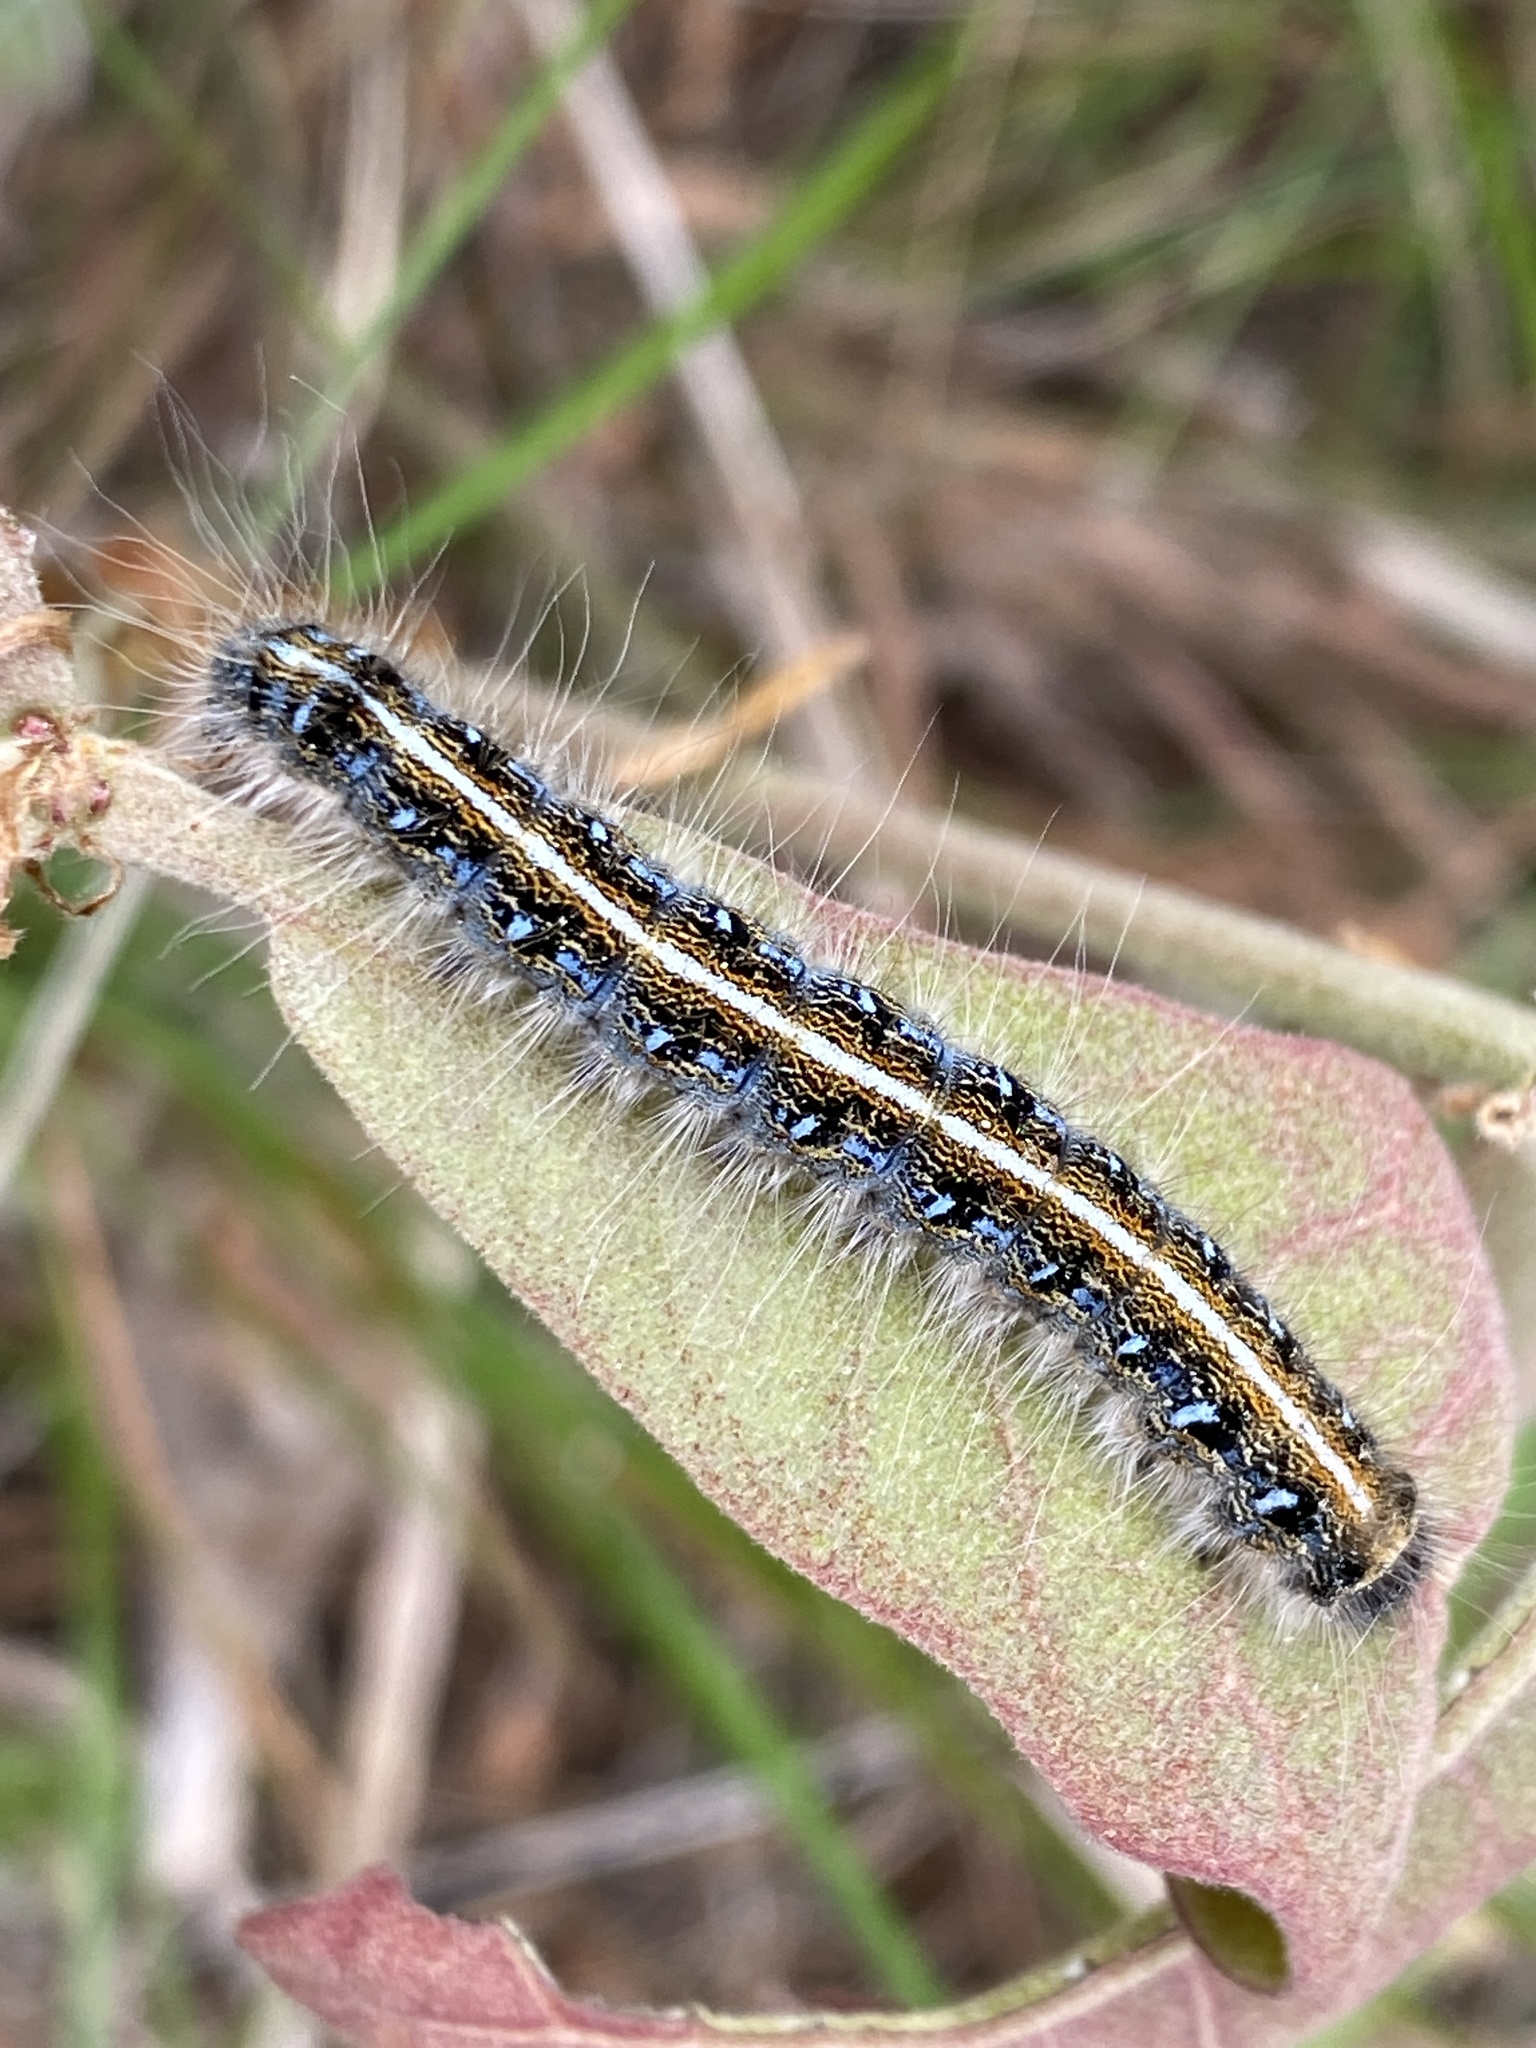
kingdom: Animalia
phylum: Arthropoda
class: Insecta
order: Lepidoptera
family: Lasiocampidae
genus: Malacosoma
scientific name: Malacosoma americana
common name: Eastern tent caterpillar moth
